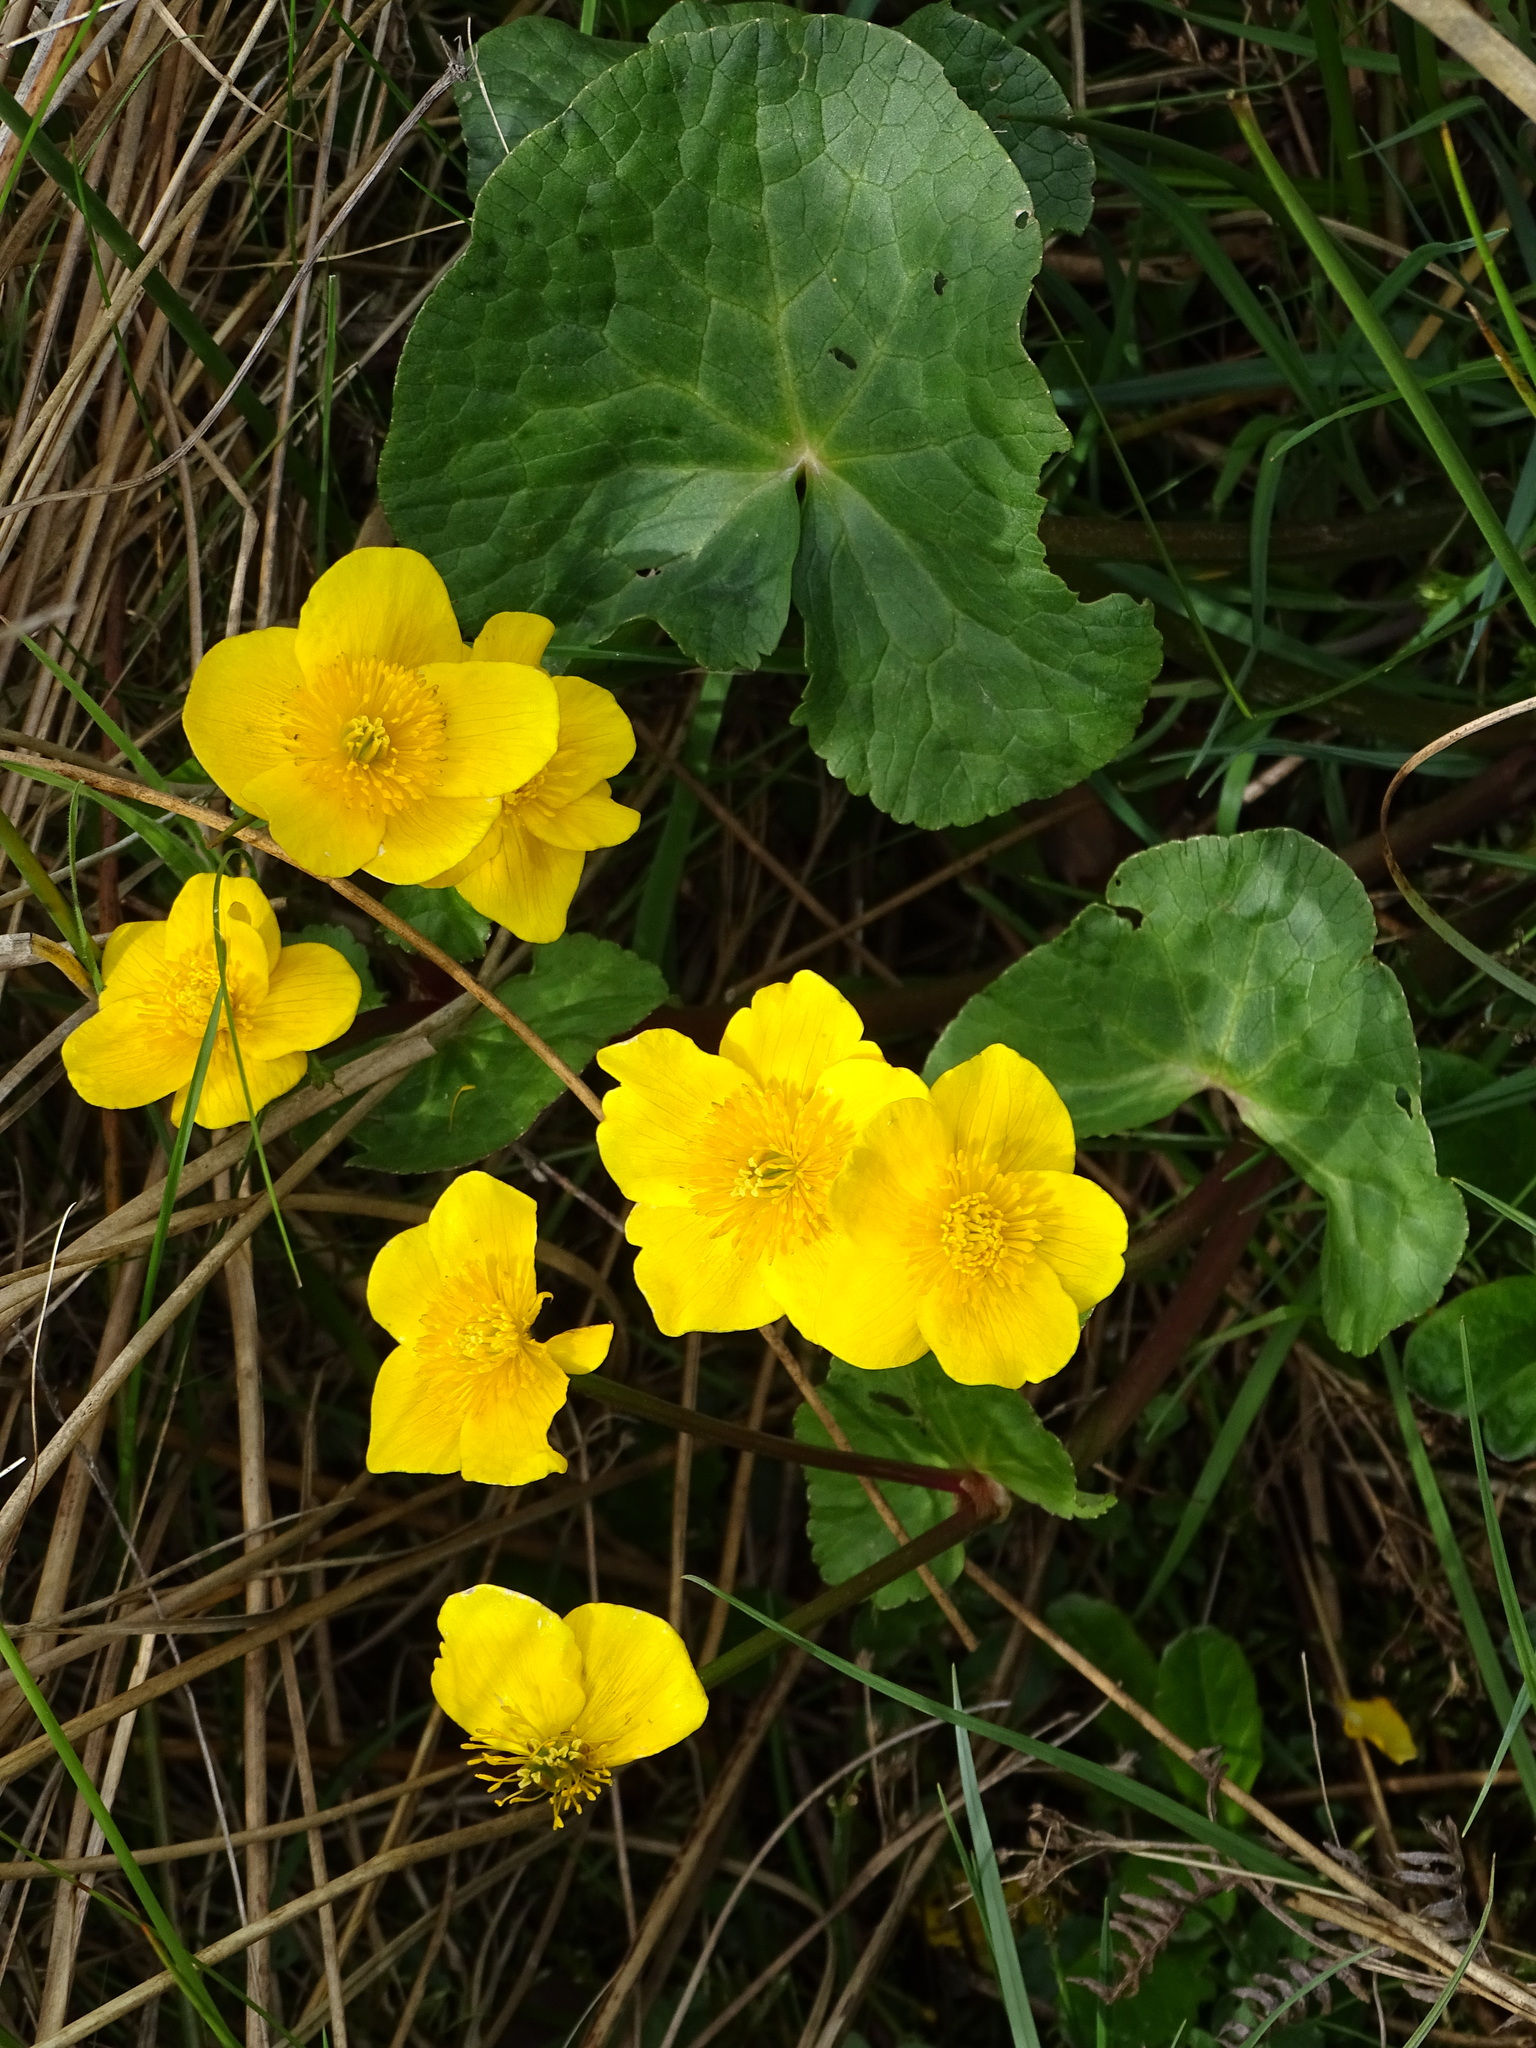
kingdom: Plantae
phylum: Tracheophyta
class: Magnoliopsida
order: Ranunculales
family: Ranunculaceae
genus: Caltha
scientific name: Caltha palustris
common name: Marsh marigold
